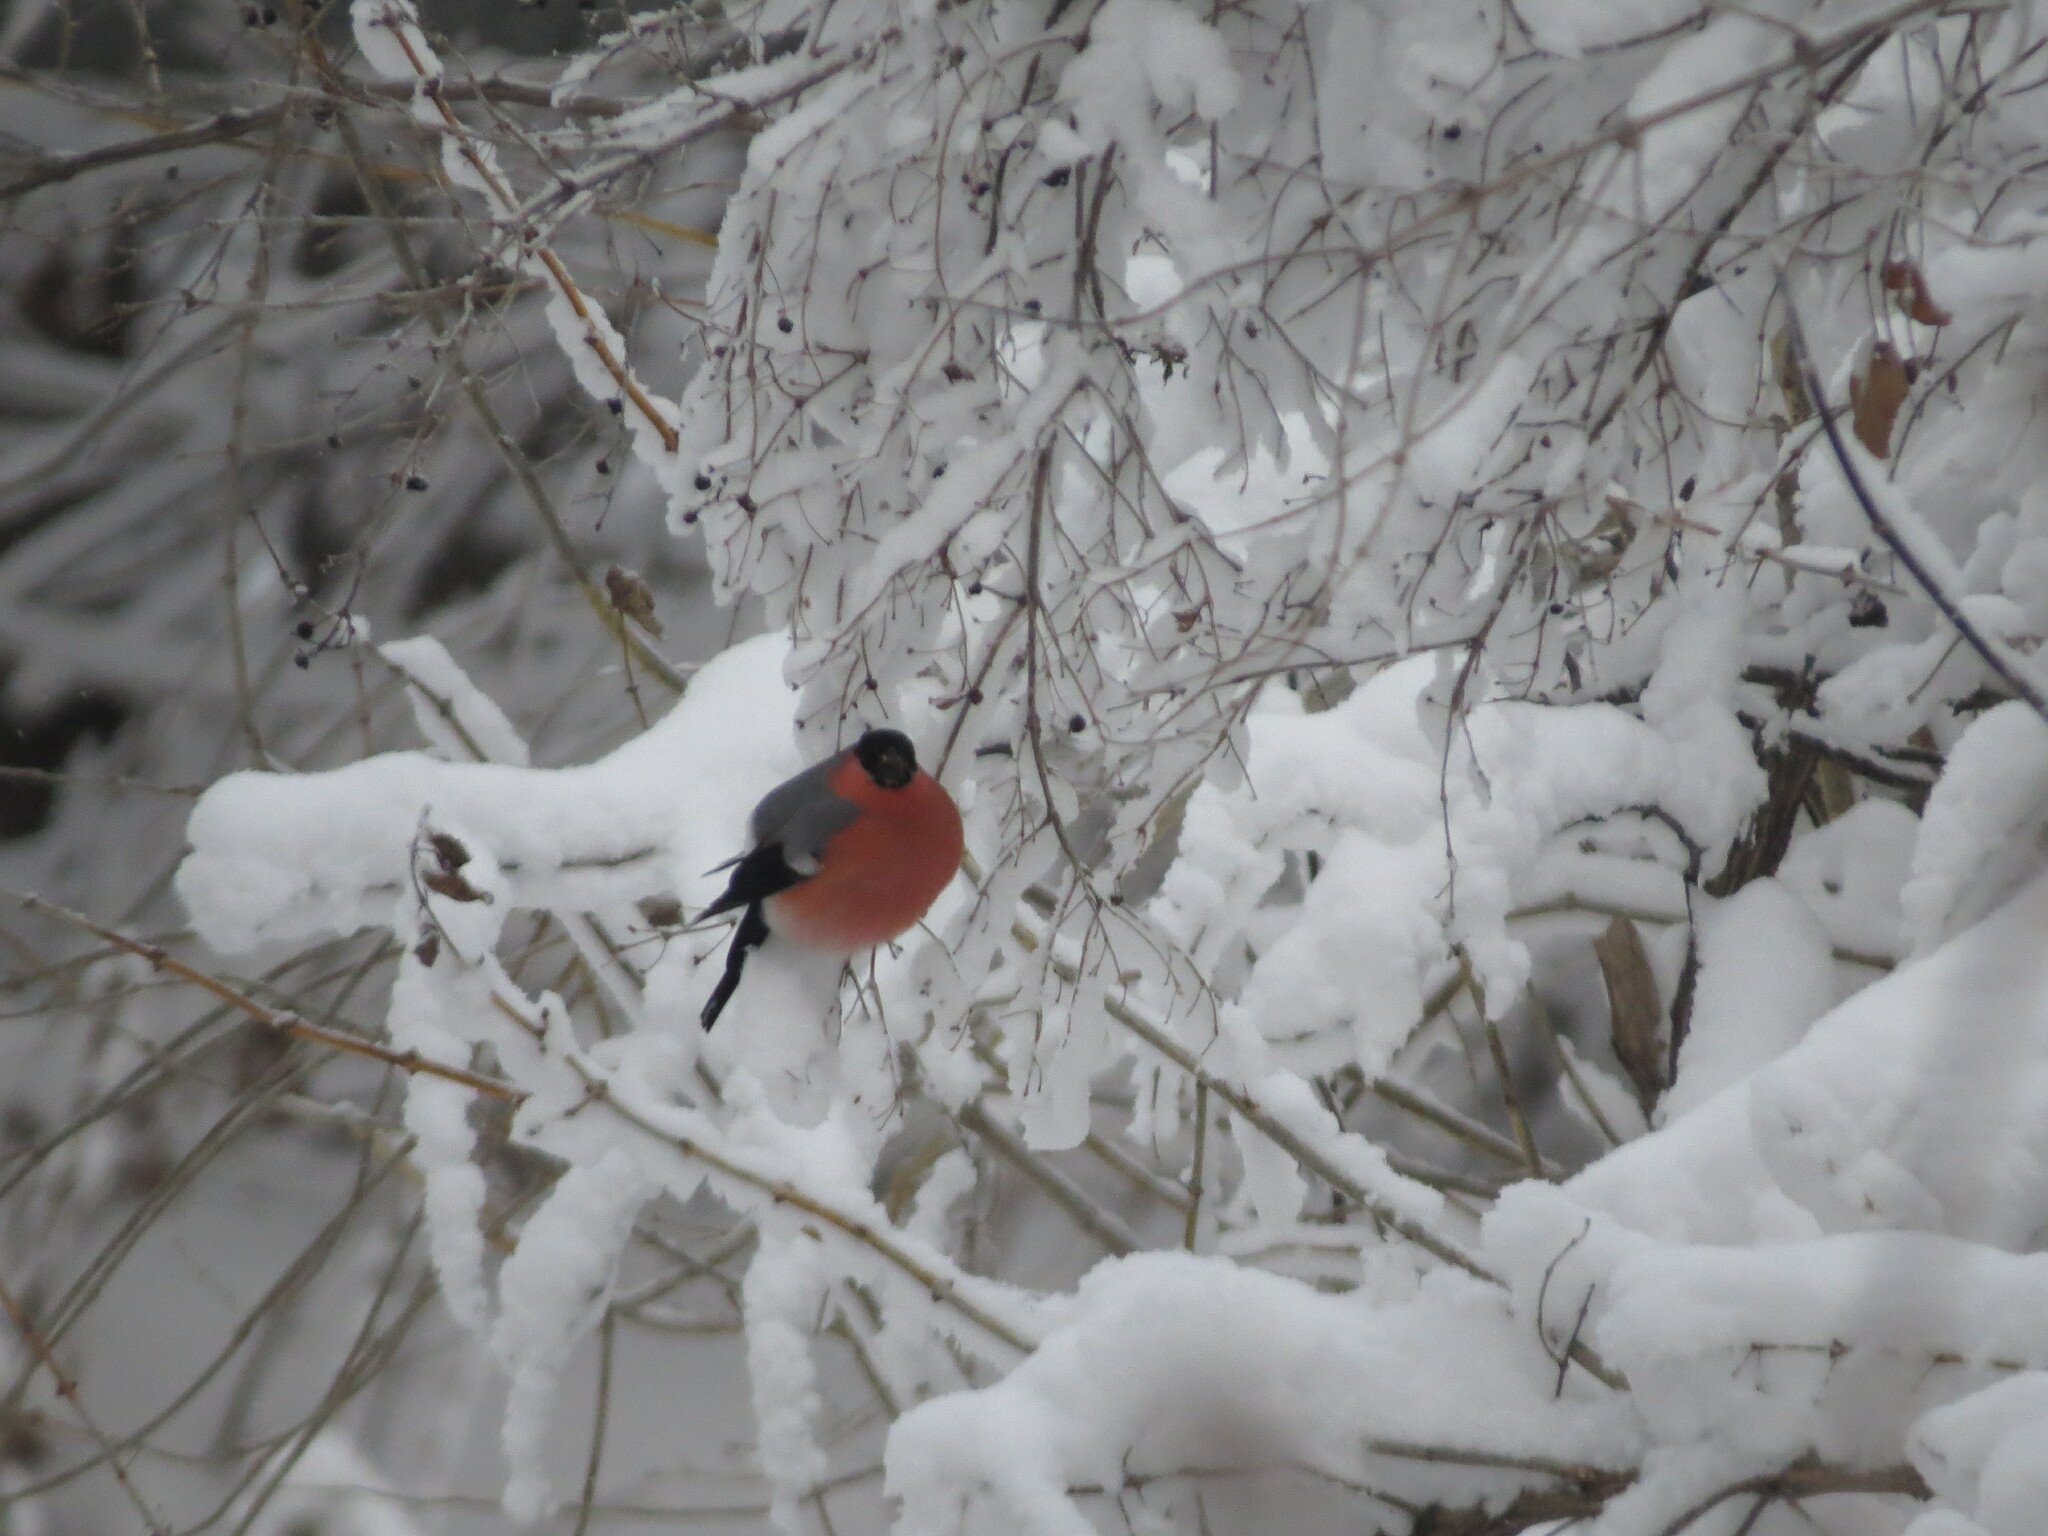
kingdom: Animalia
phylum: Chordata
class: Aves
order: Passeriformes
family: Fringillidae
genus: Pyrrhula
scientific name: Pyrrhula pyrrhula
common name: Eurasian bullfinch
